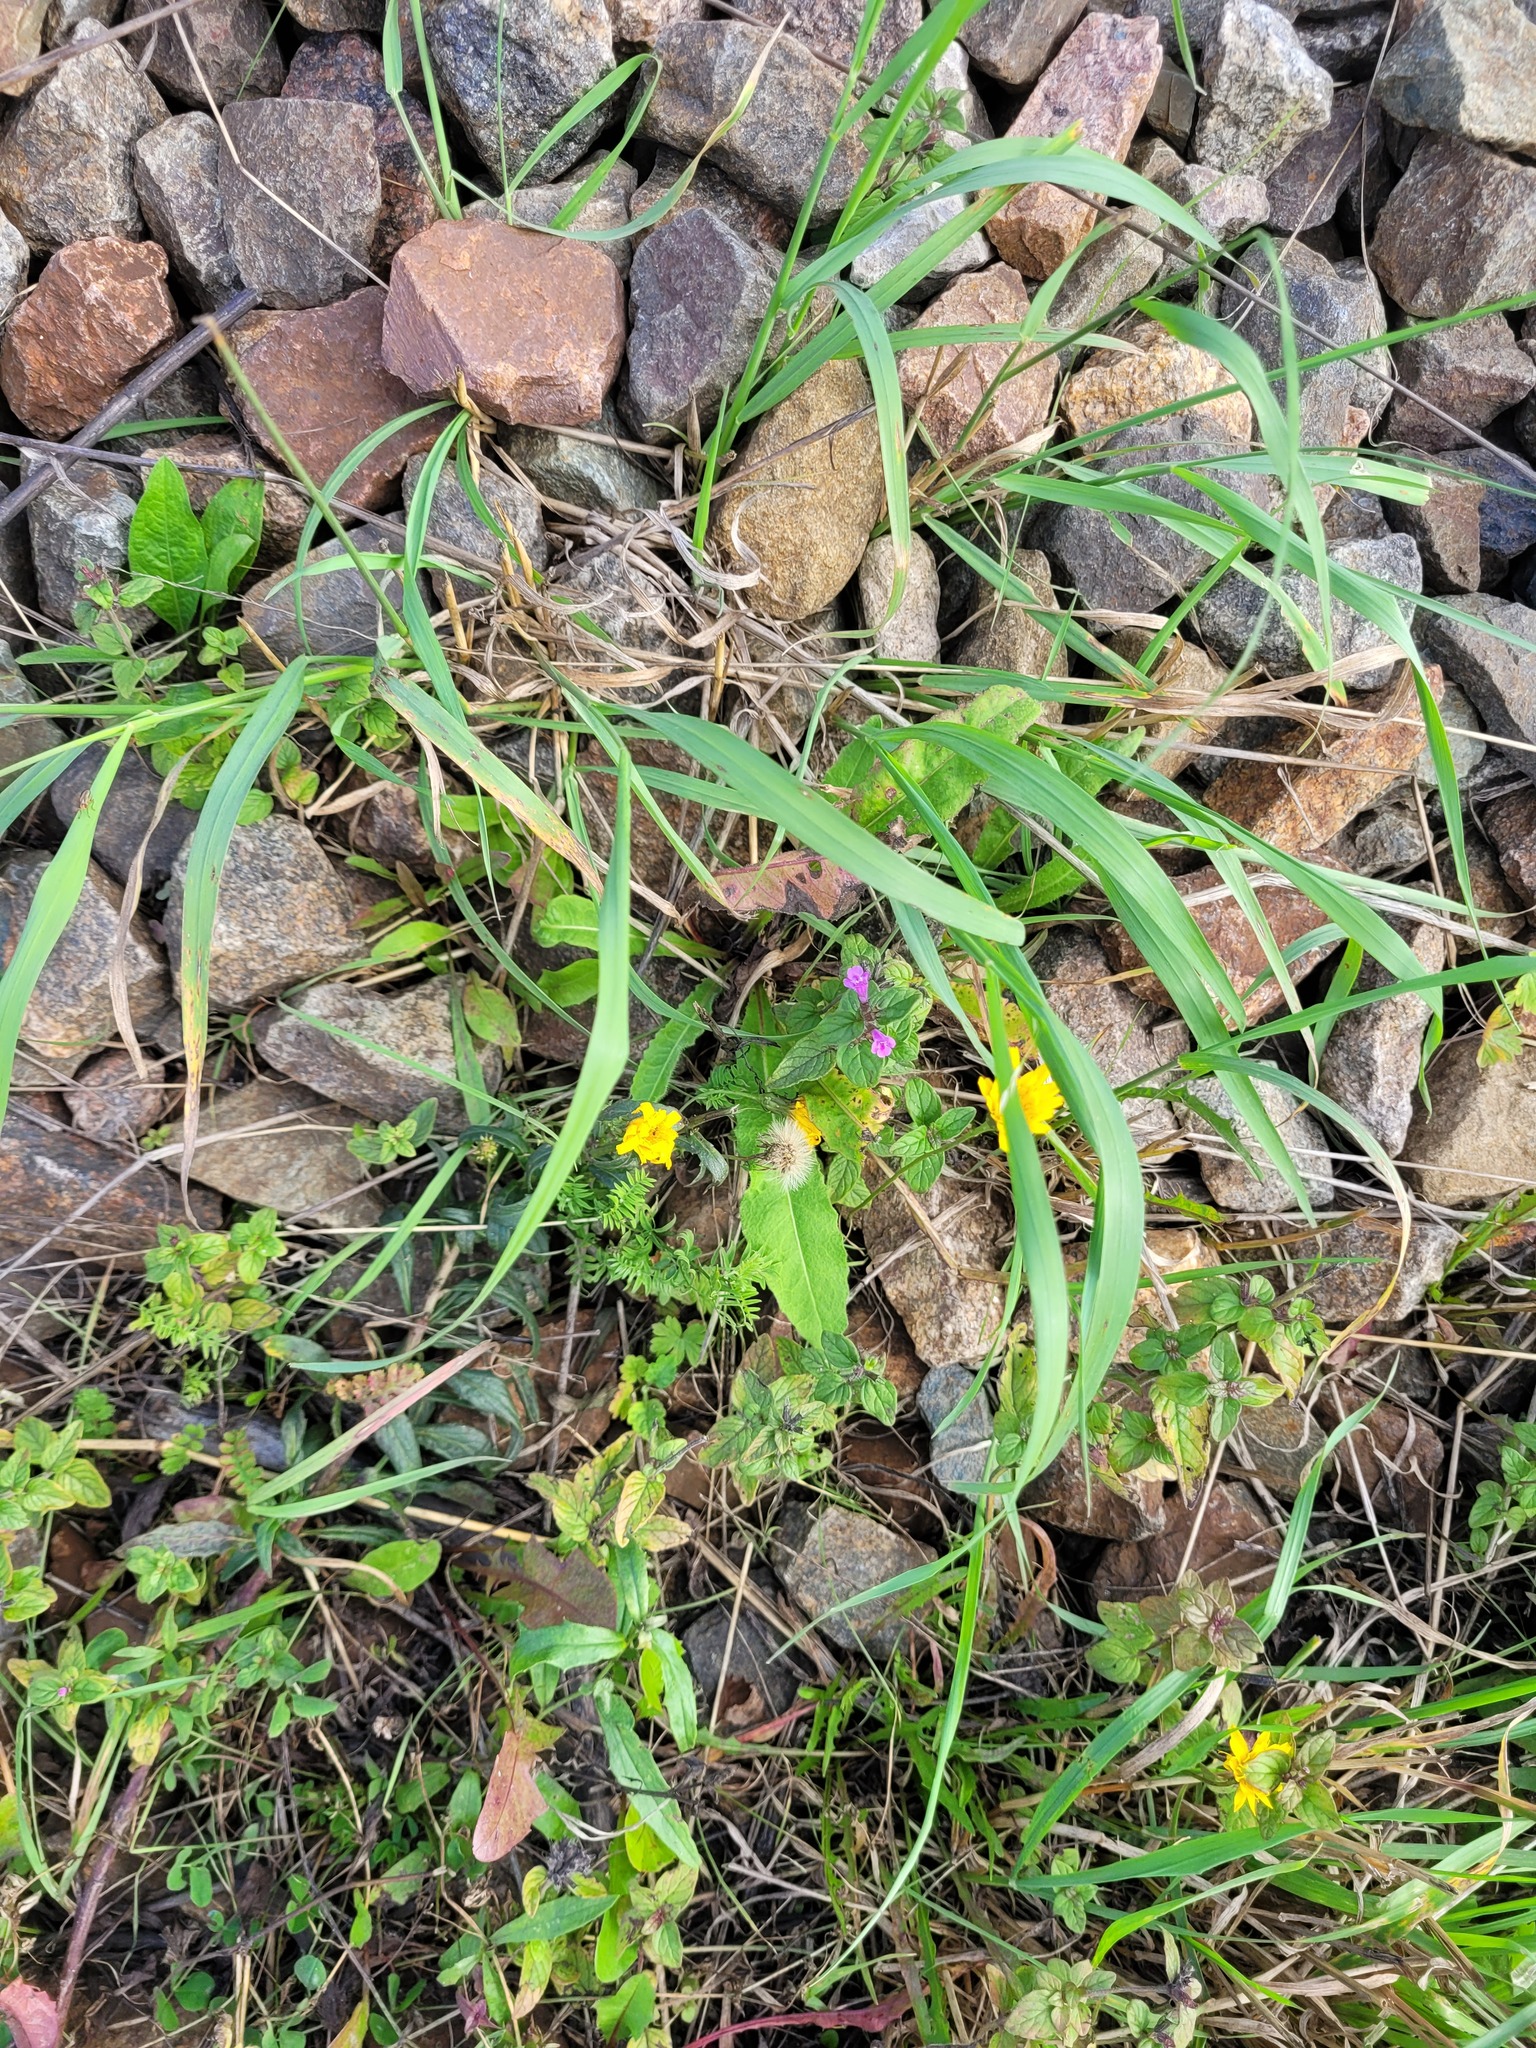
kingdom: Plantae
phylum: Tracheophyta
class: Magnoliopsida
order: Lamiales
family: Lamiaceae
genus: Clinopodium
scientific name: Clinopodium vulgare
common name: Wild basil
